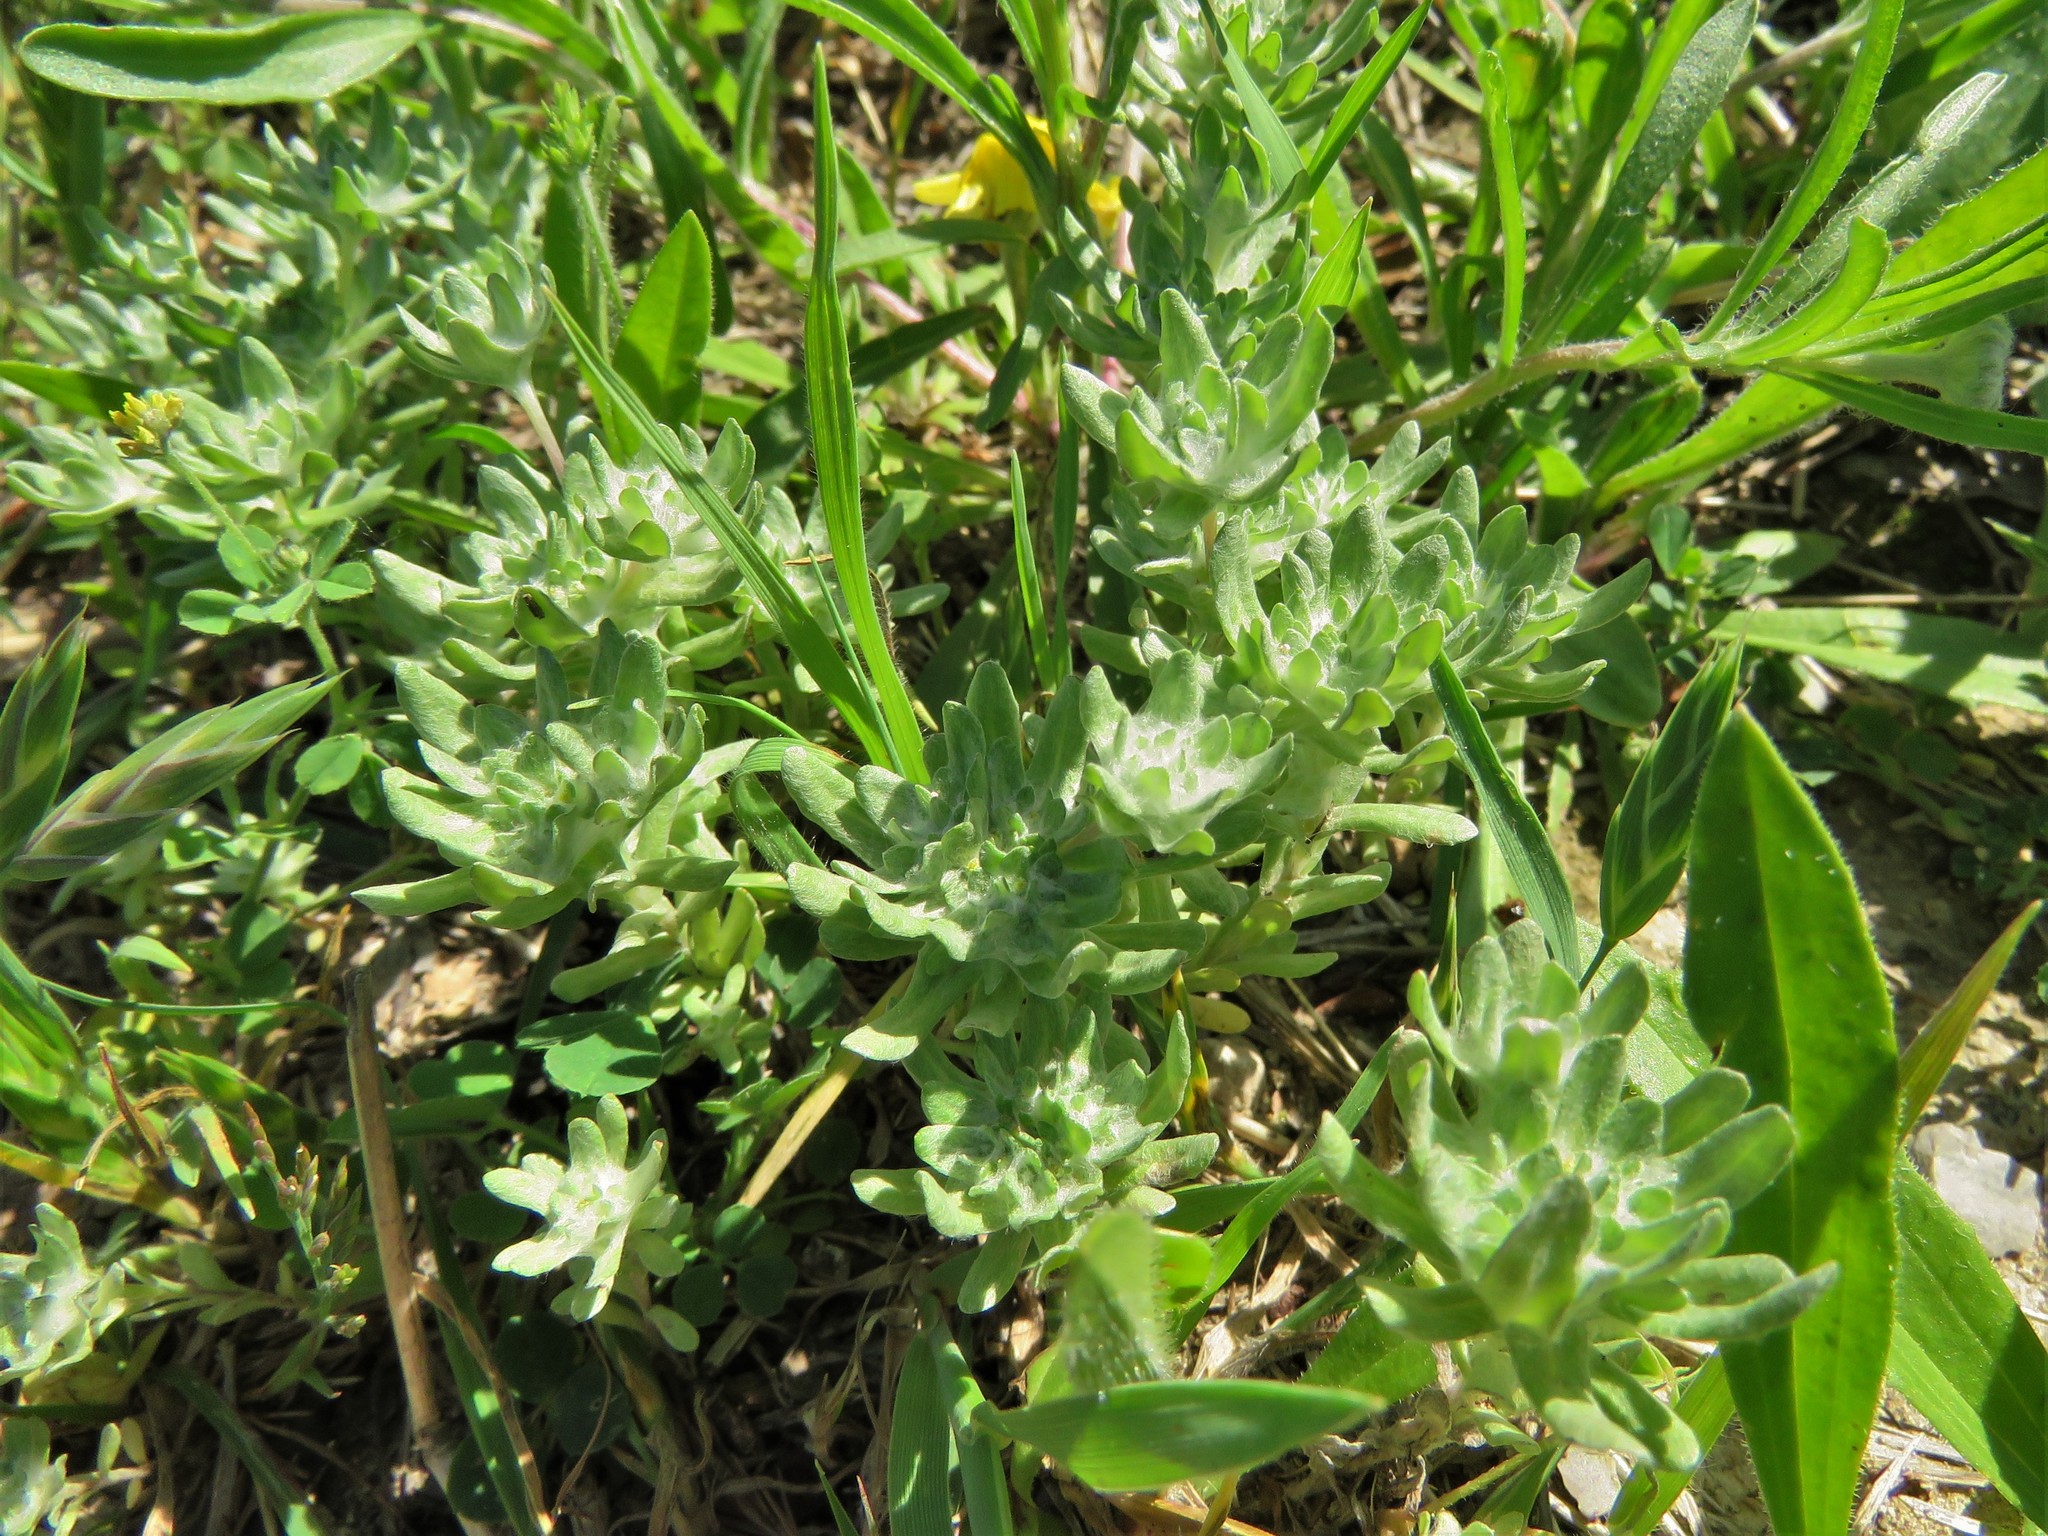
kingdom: Plantae
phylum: Tracheophyta
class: Magnoliopsida
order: Asterales
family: Asteraceae
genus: Diaperia
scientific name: Diaperia prolifera
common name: Big-head rabbit-tobacco
